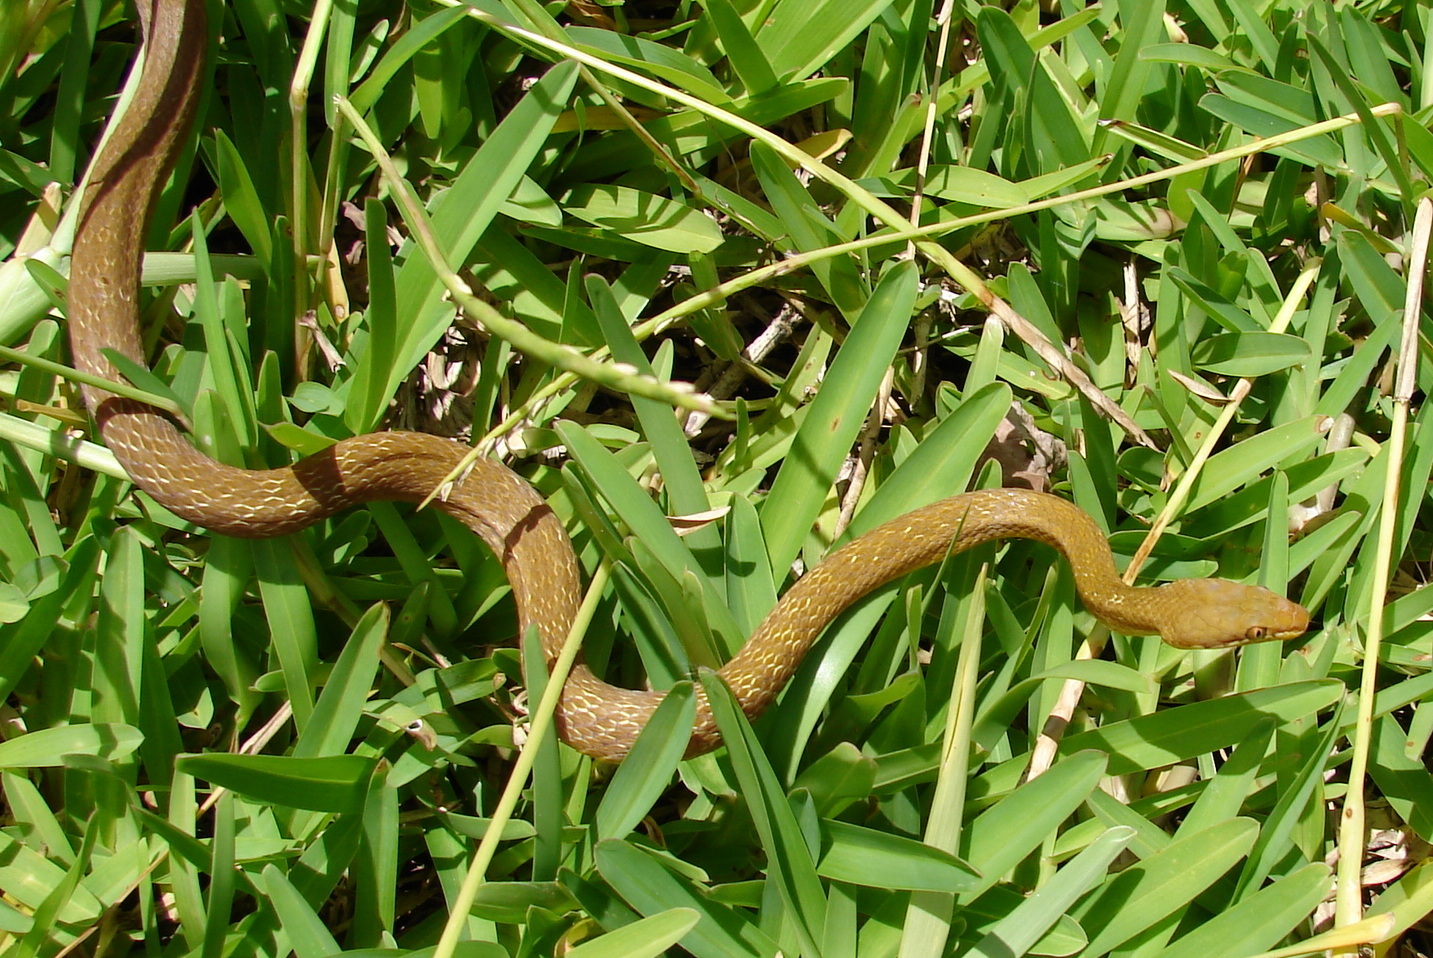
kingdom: Animalia
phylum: Chordata
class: Squamata
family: Colubridae
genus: Lycognathophis
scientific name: Lycognathophis seychellensis
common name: Seychelles wolf snake
